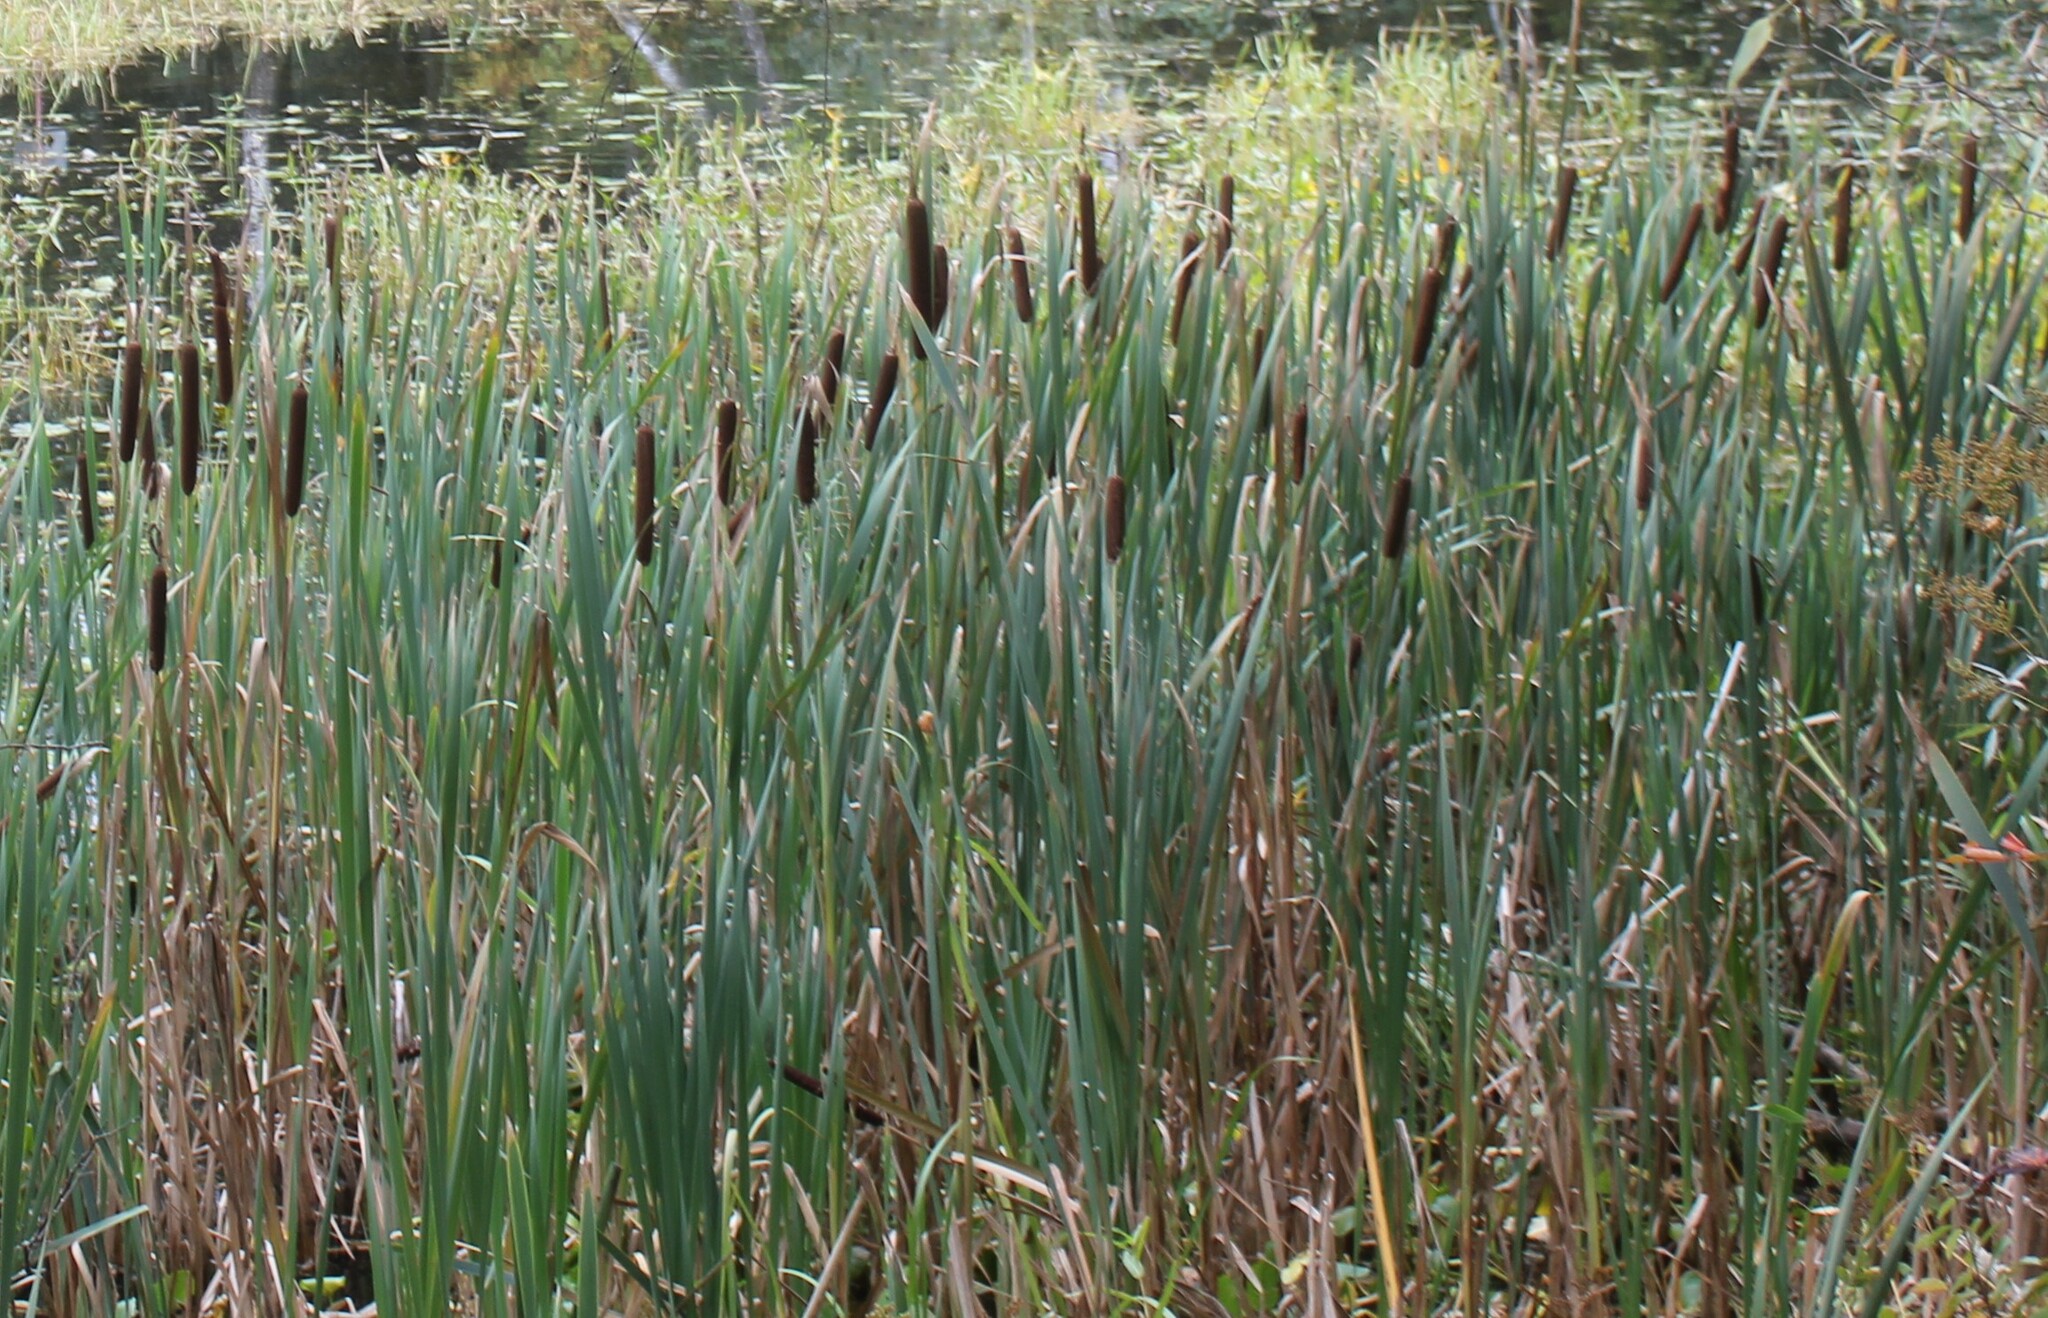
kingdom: Plantae
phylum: Tracheophyta
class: Liliopsida
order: Poales
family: Typhaceae
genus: Typha
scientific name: Typha latifolia
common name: Broadleaf cattail
